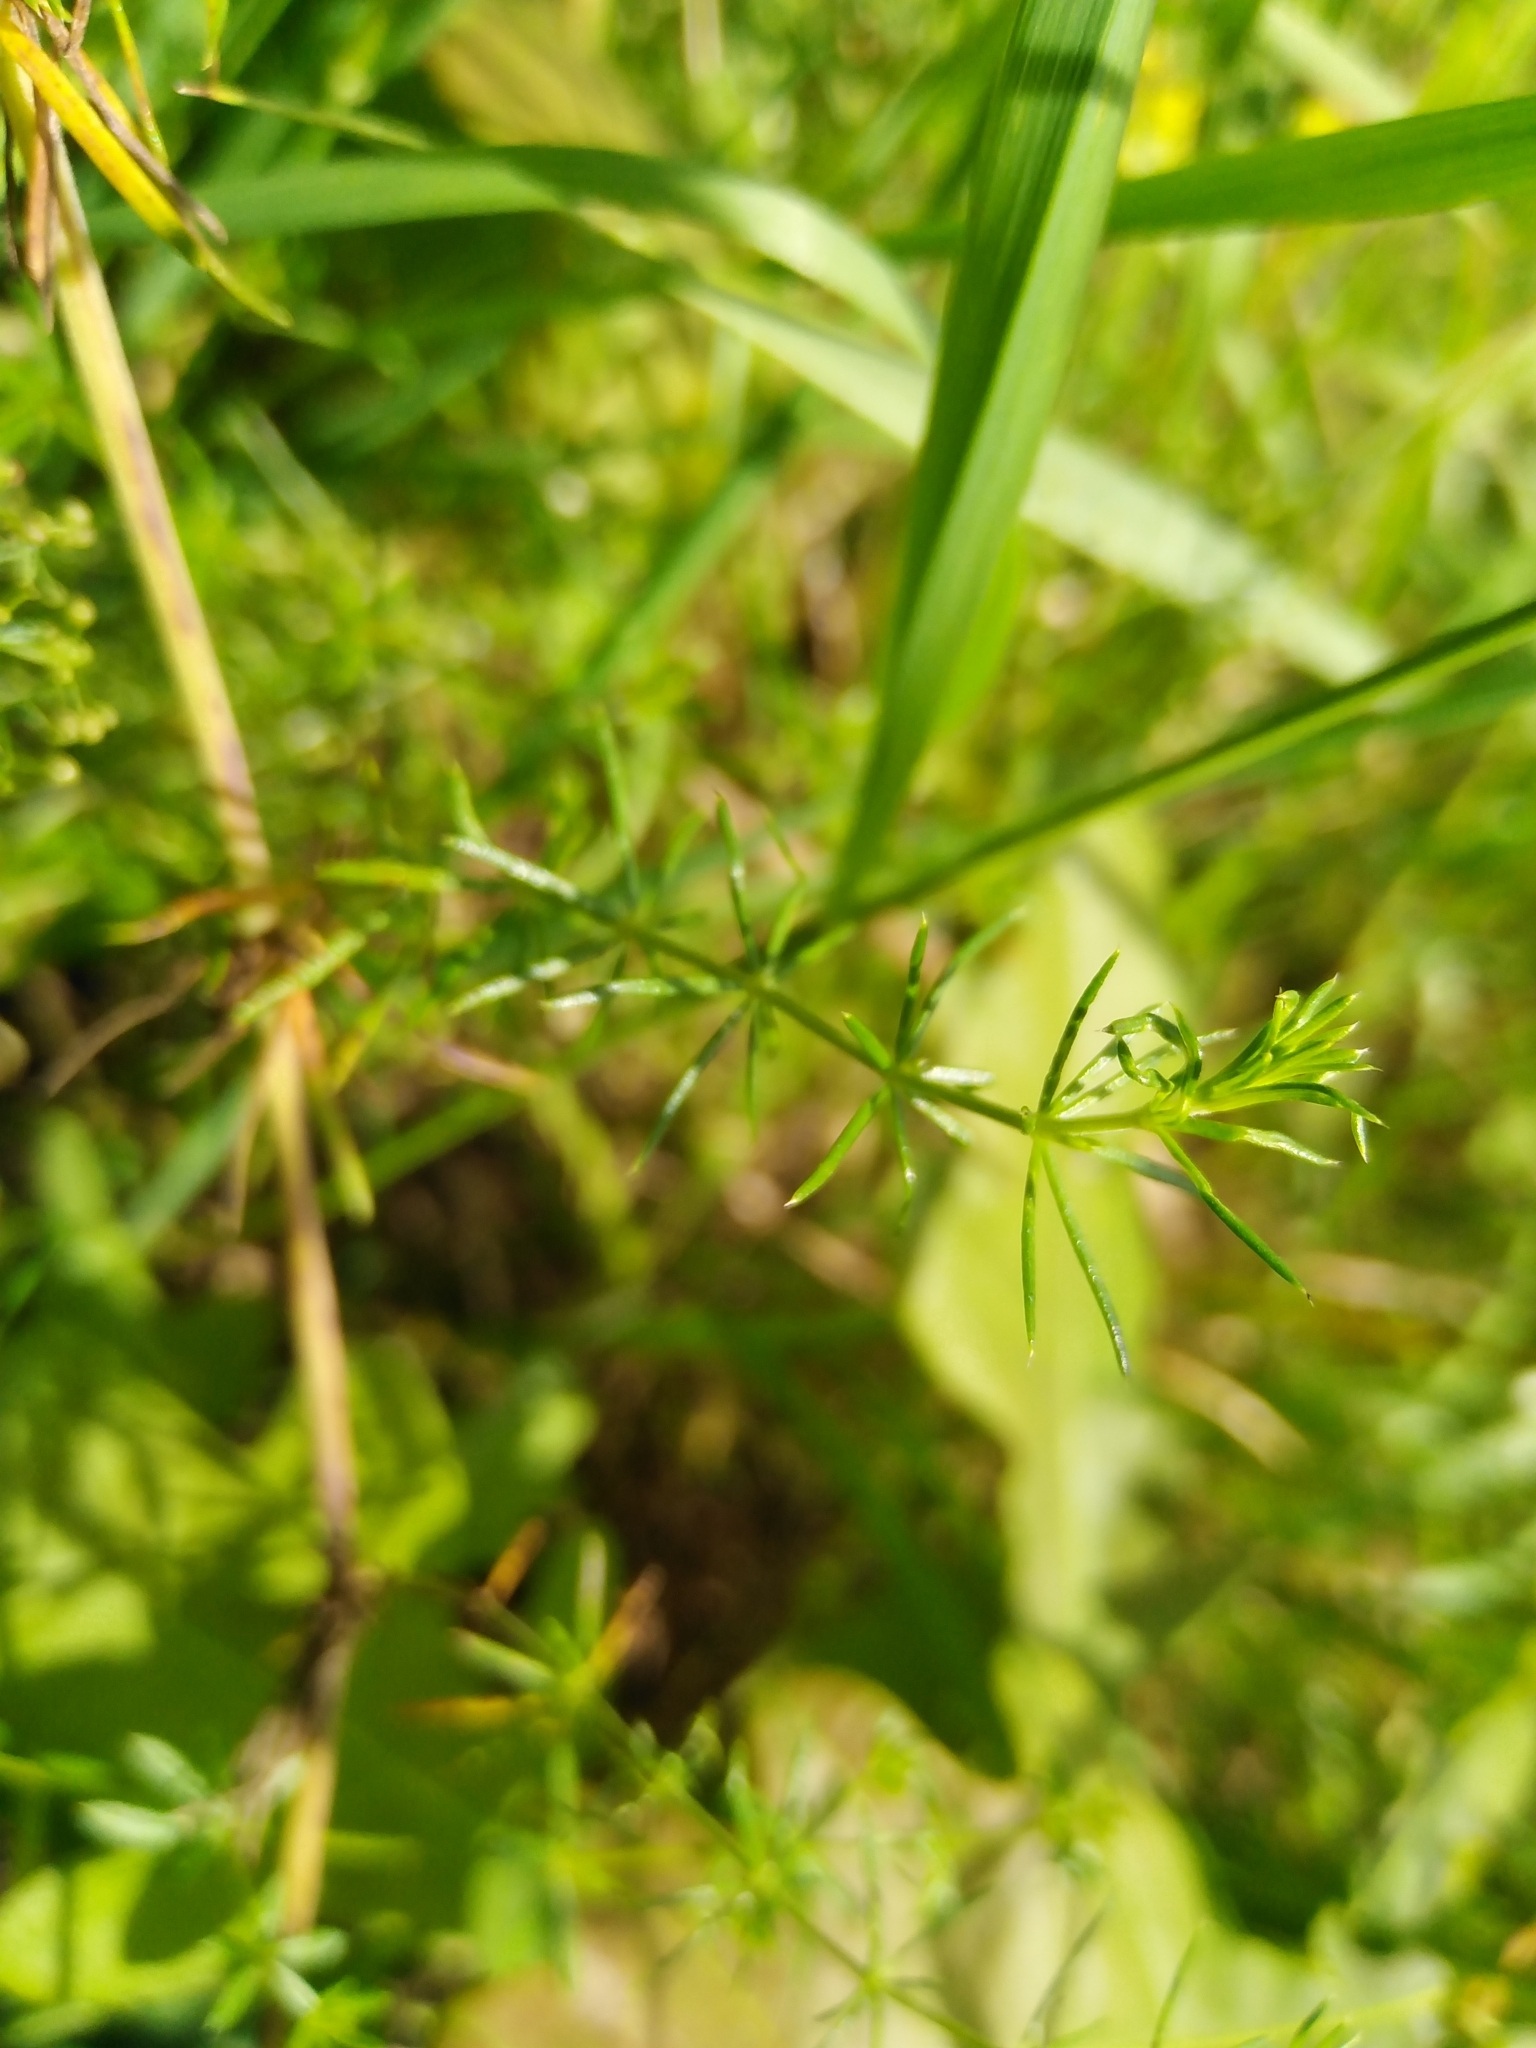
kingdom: Plantae
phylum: Tracheophyta
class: Magnoliopsida
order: Gentianales
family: Rubiaceae
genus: Galium
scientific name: Galium verum
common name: Lady's bedstraw
